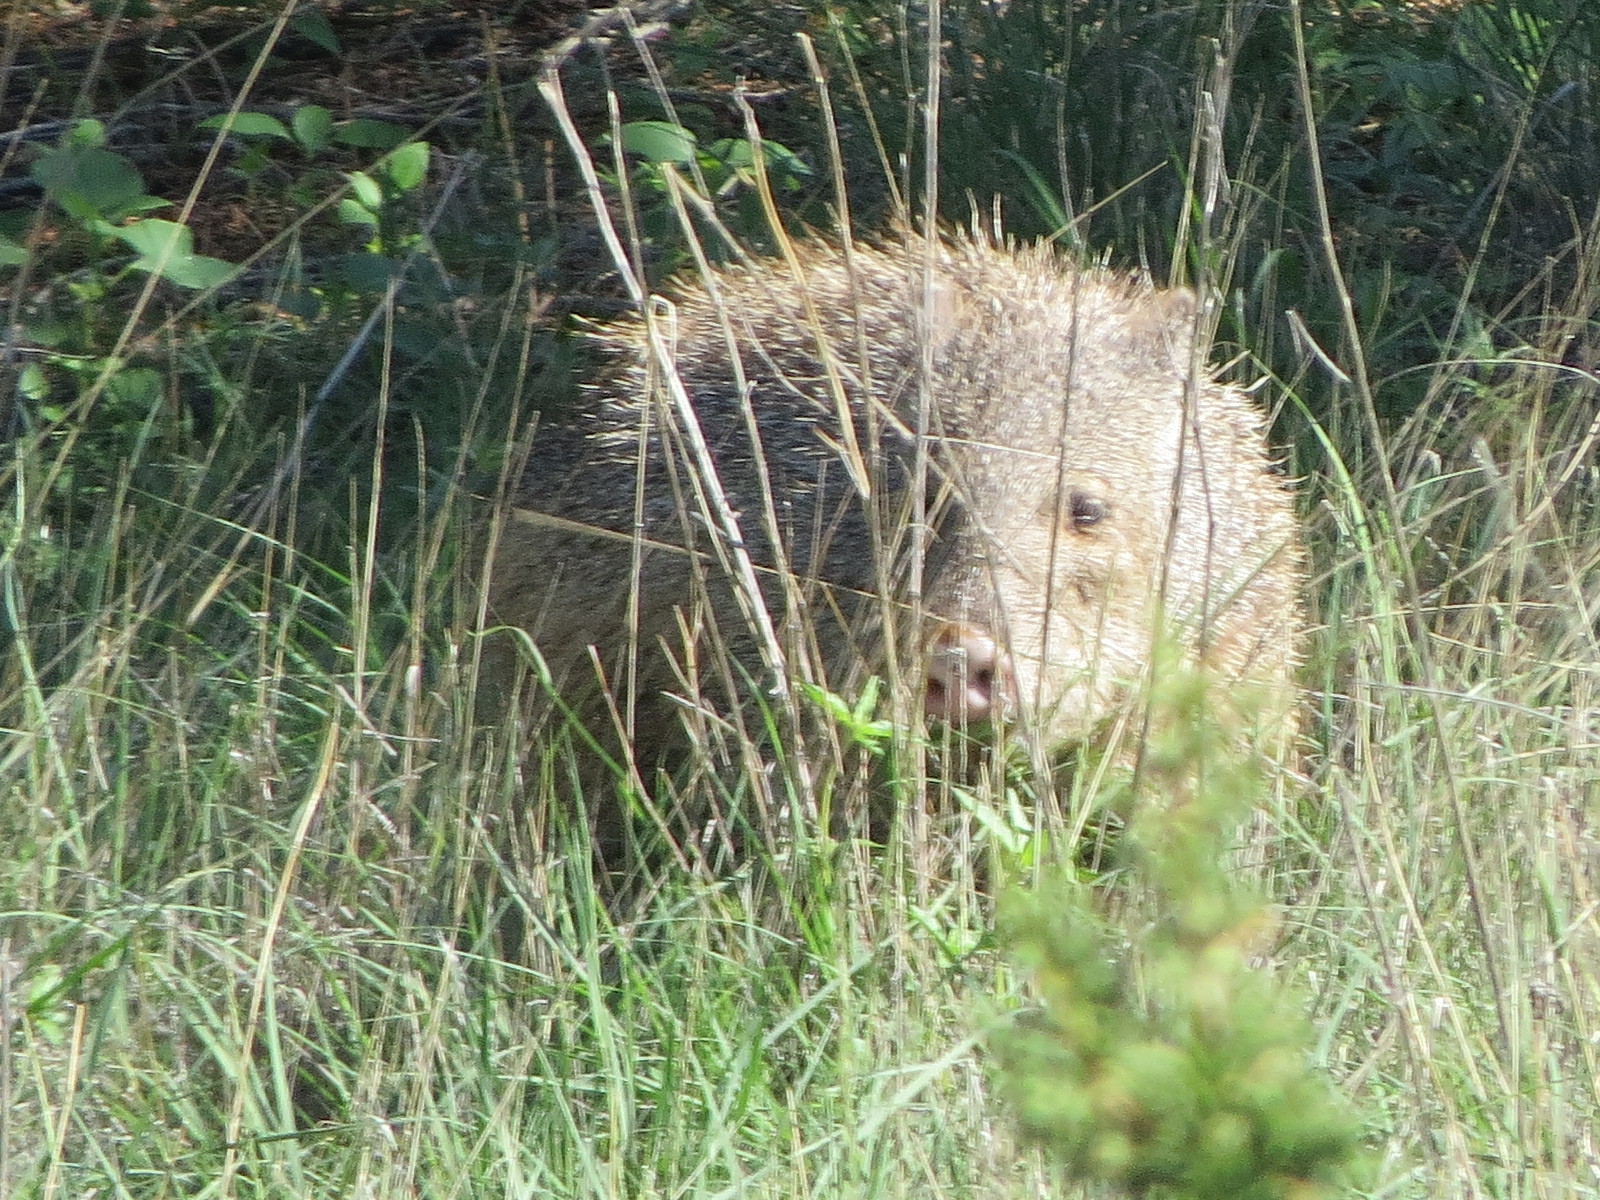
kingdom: Animalia
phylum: Chordata
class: Mammalia
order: Artiodactyla
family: Tayassuidae
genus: Pecari
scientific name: Pecari tajacu
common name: Collared peccary
